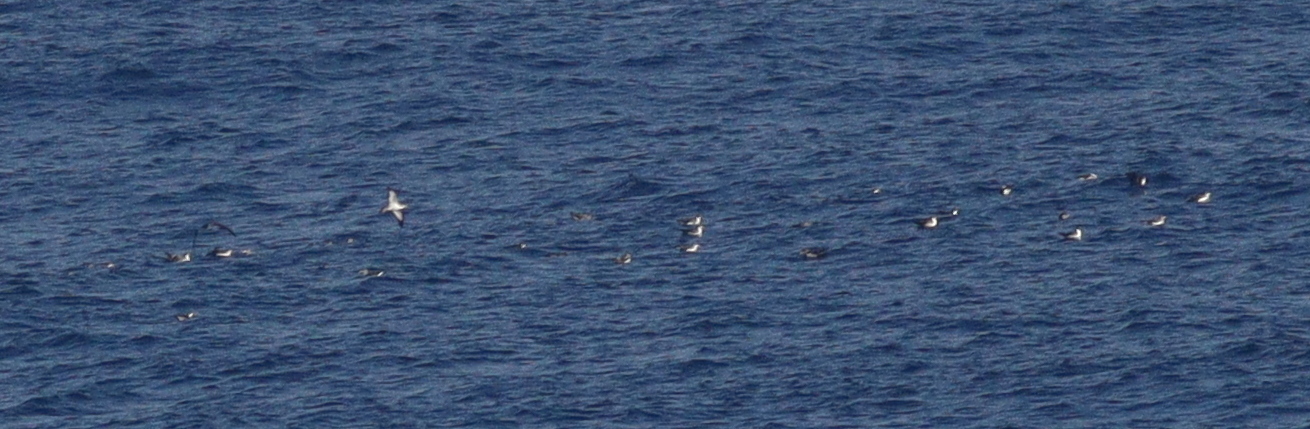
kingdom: Animalia
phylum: Chordata
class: Aves
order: Procellariiformes
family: Procellariidae
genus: Calonectris
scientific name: Calonectris diomedea
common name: Cory's shearwater
